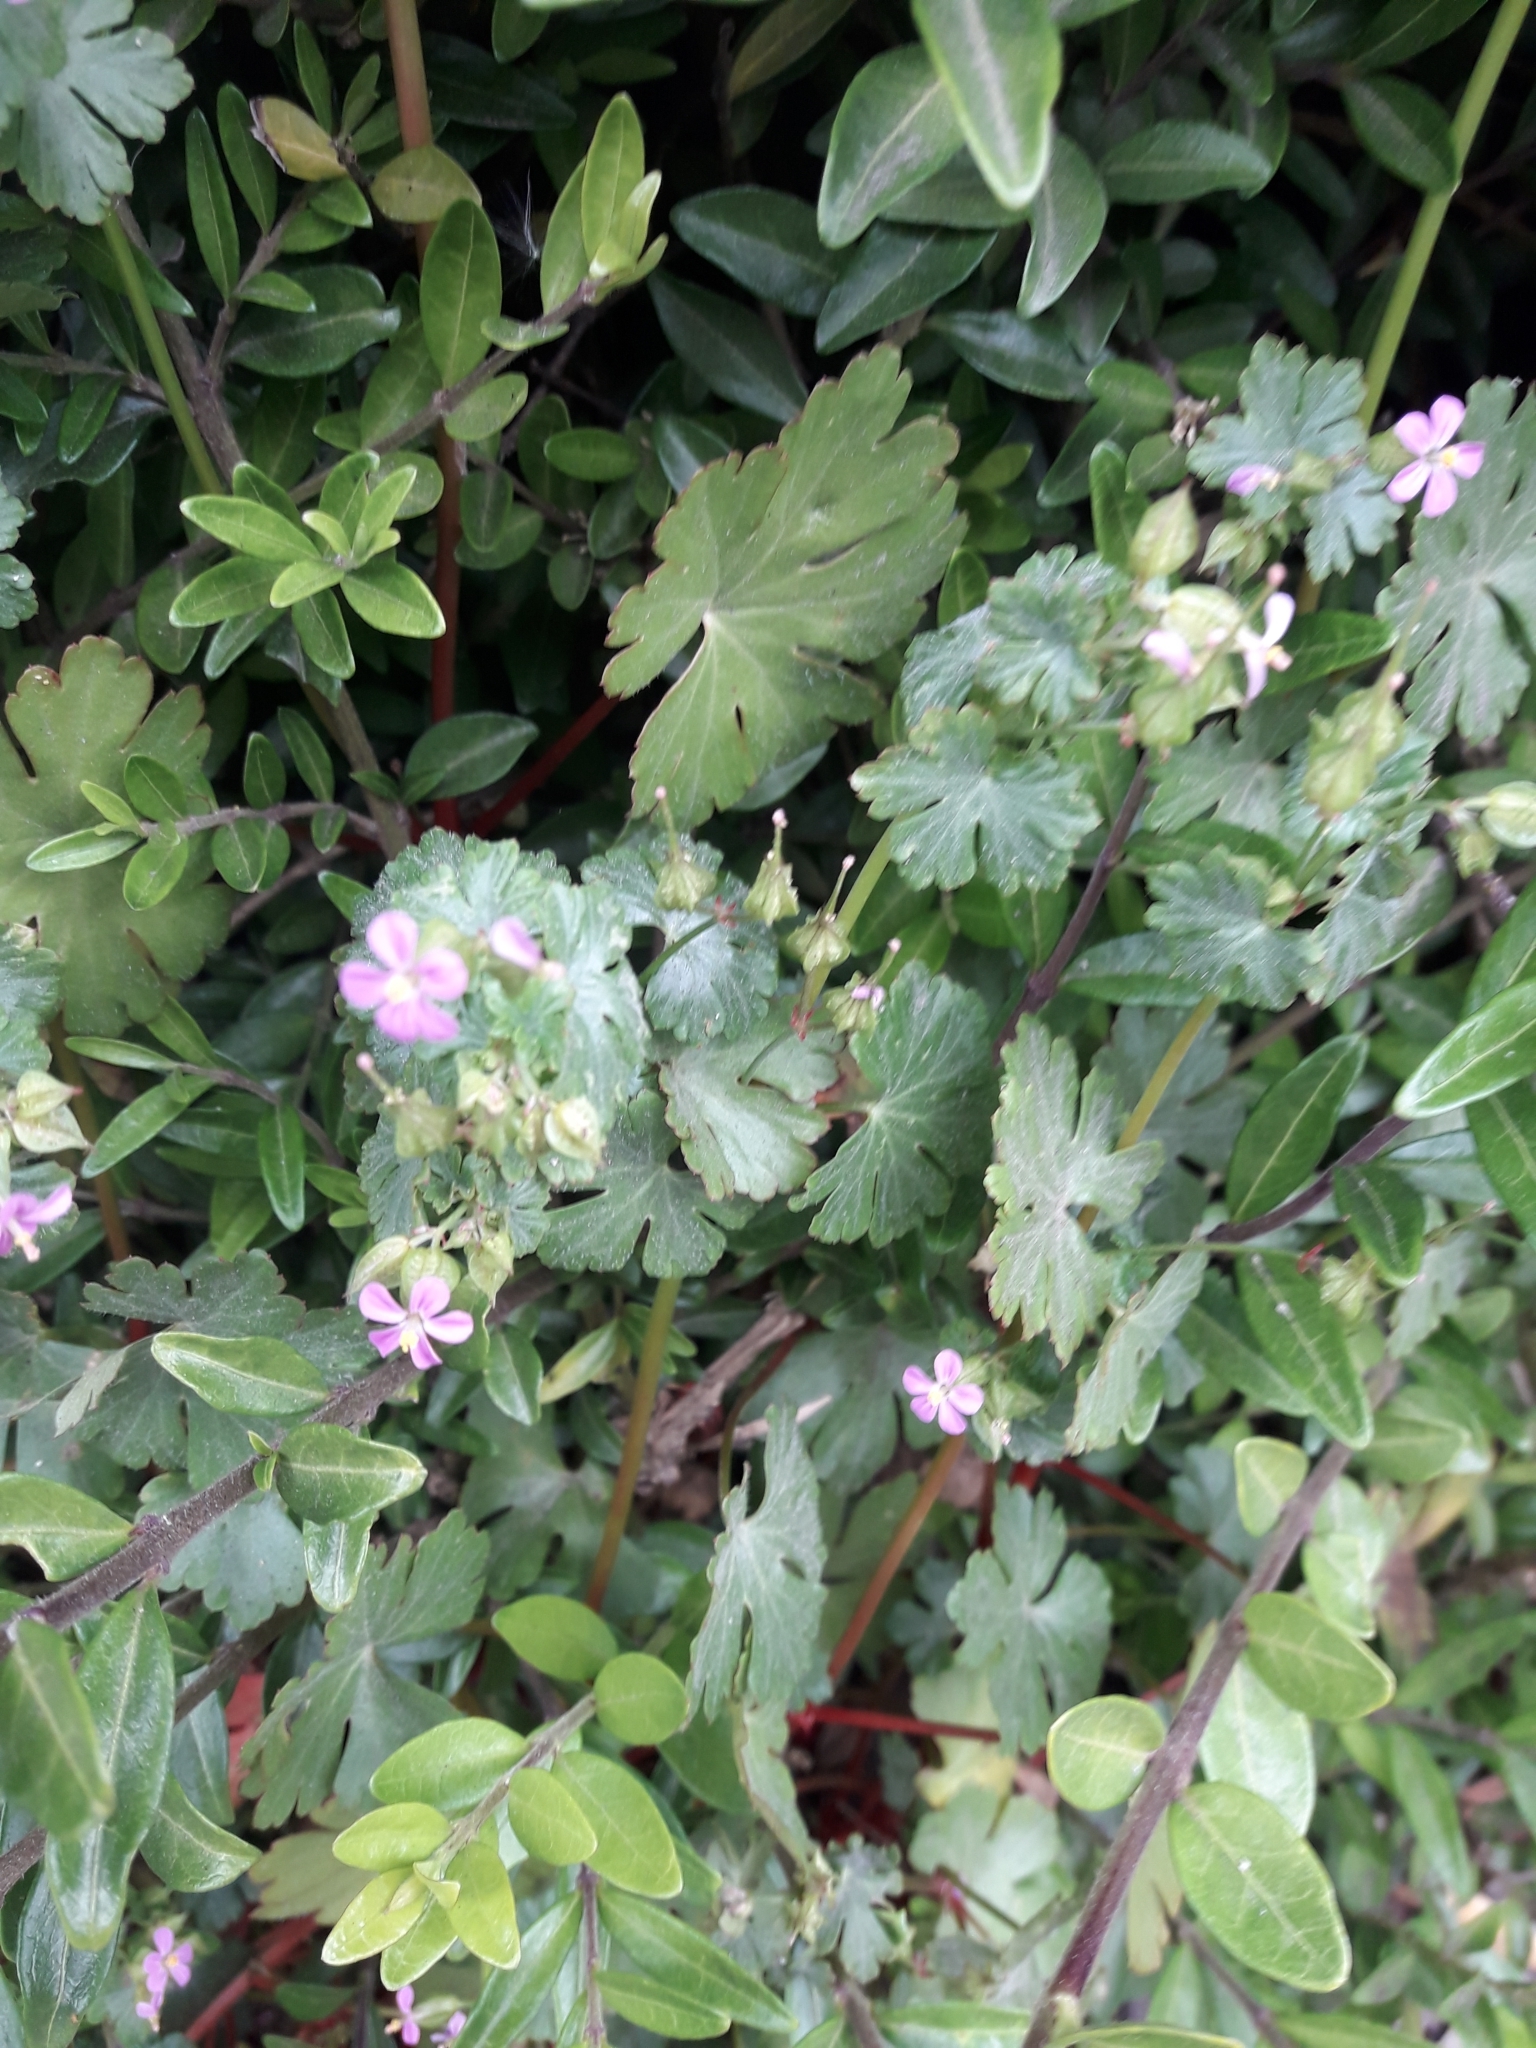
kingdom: Plantae
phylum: Tracheophyta
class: Magnoliopsida
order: Geraniales
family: Geraniaceae
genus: Geranium
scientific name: Geranium lucidum
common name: Shining crane's-bill
